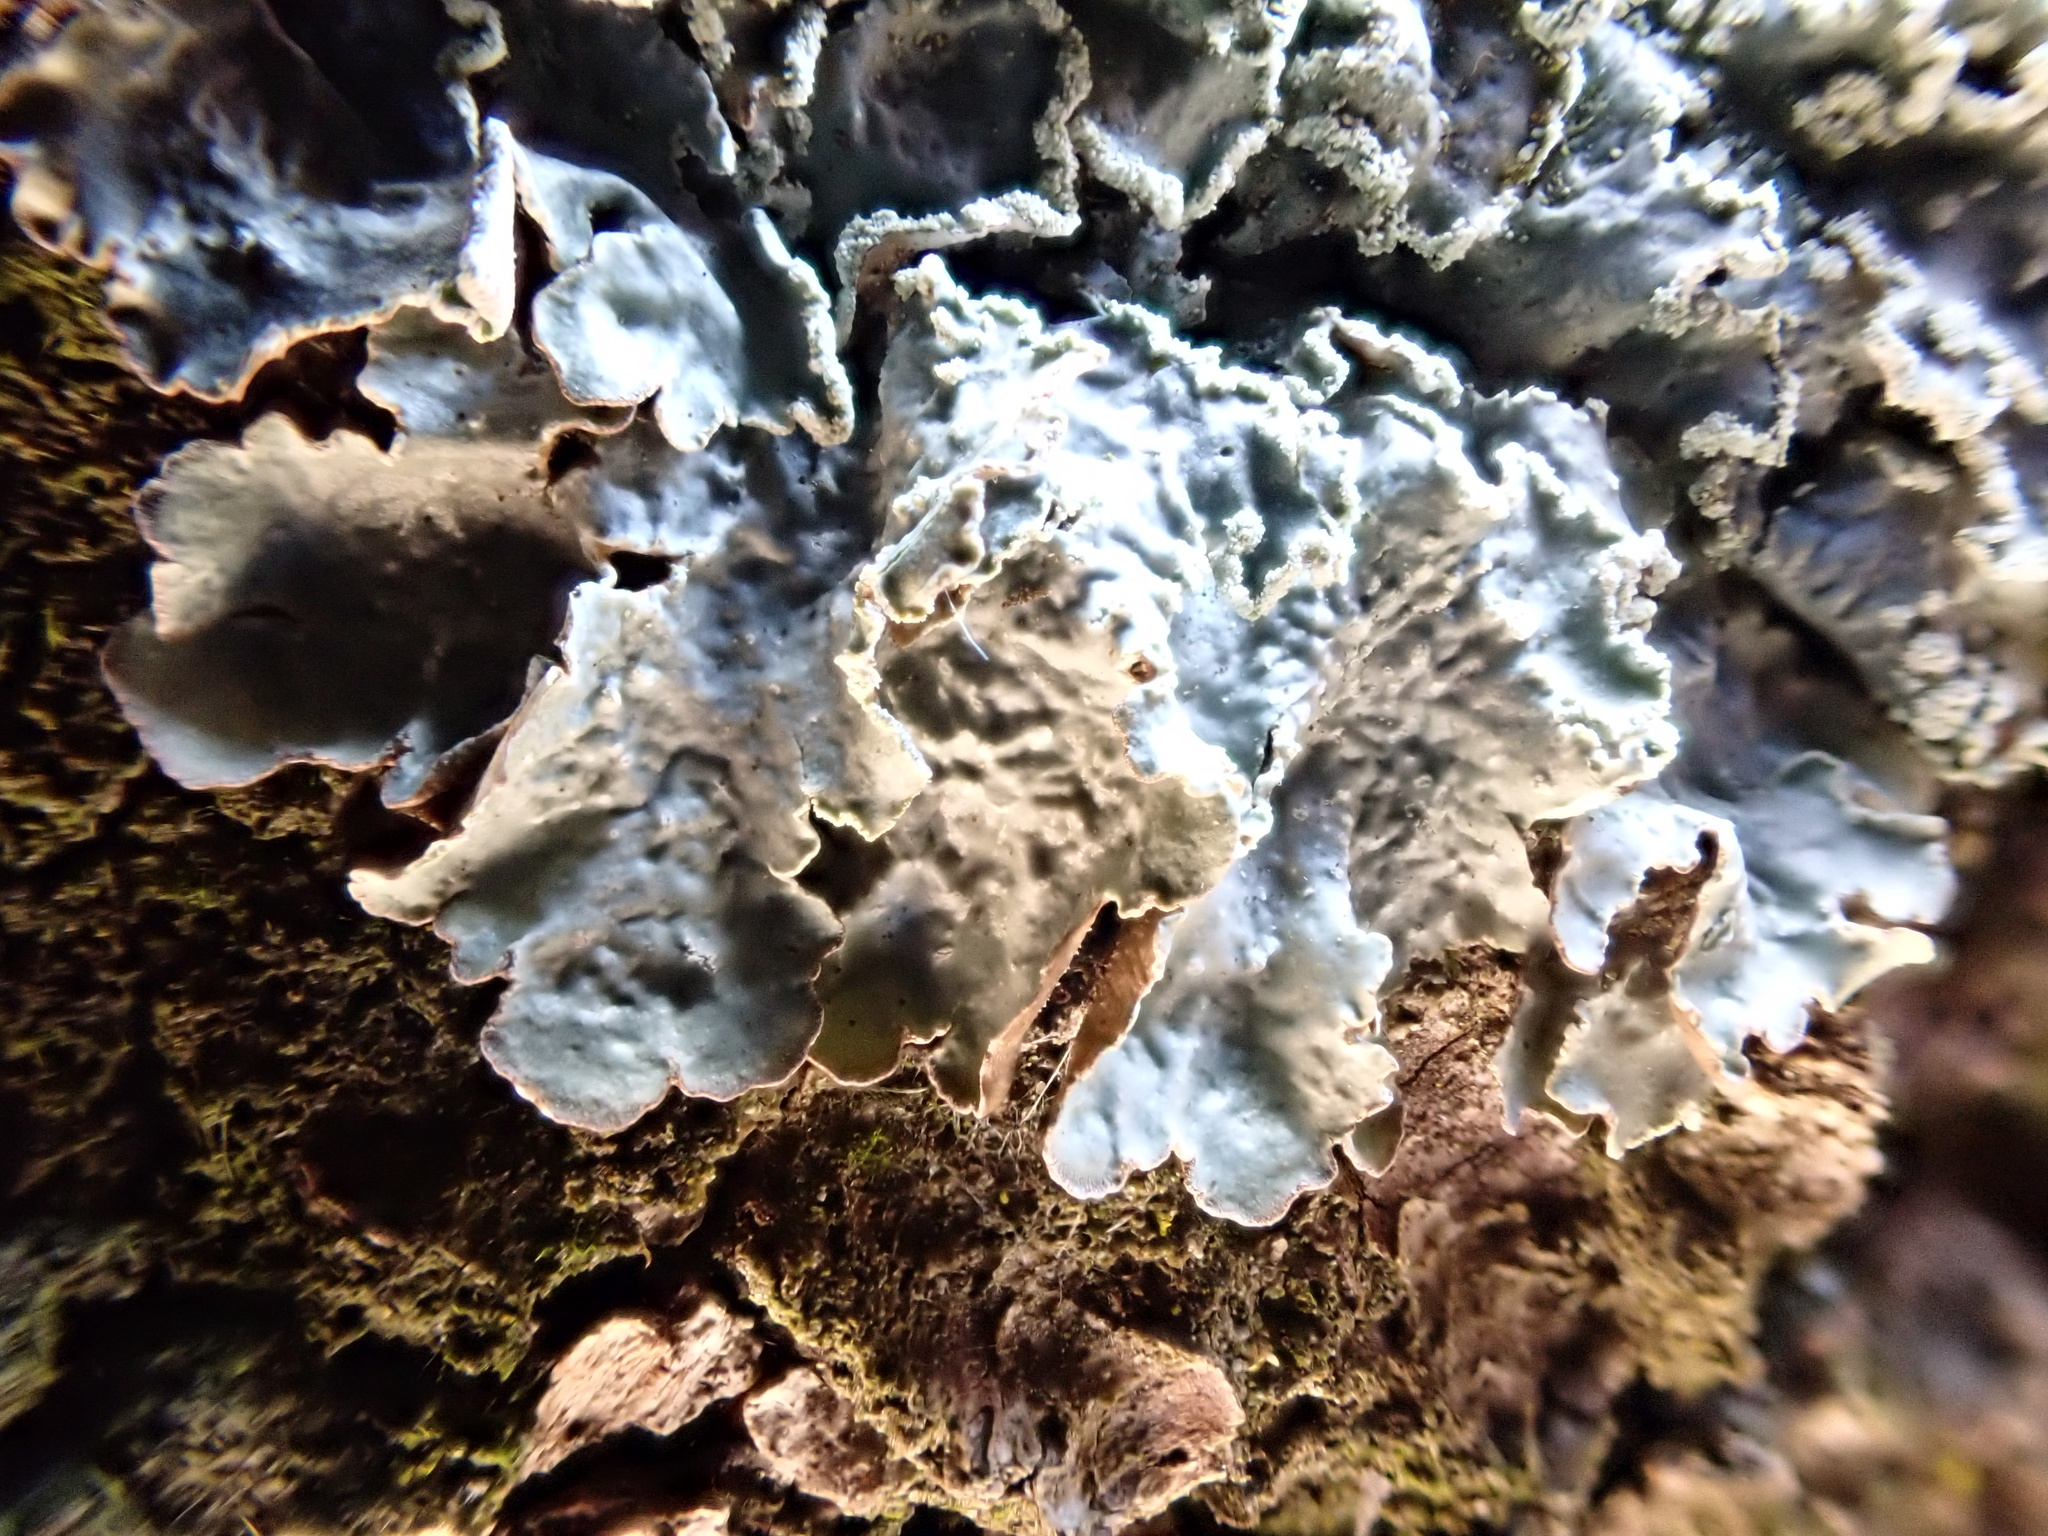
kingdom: Fungi
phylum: Ascomycota
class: Lecanoromycetes
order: Lecanorales
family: Parmeliaceae
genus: Punctelia
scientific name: Punctelia jeckeri
